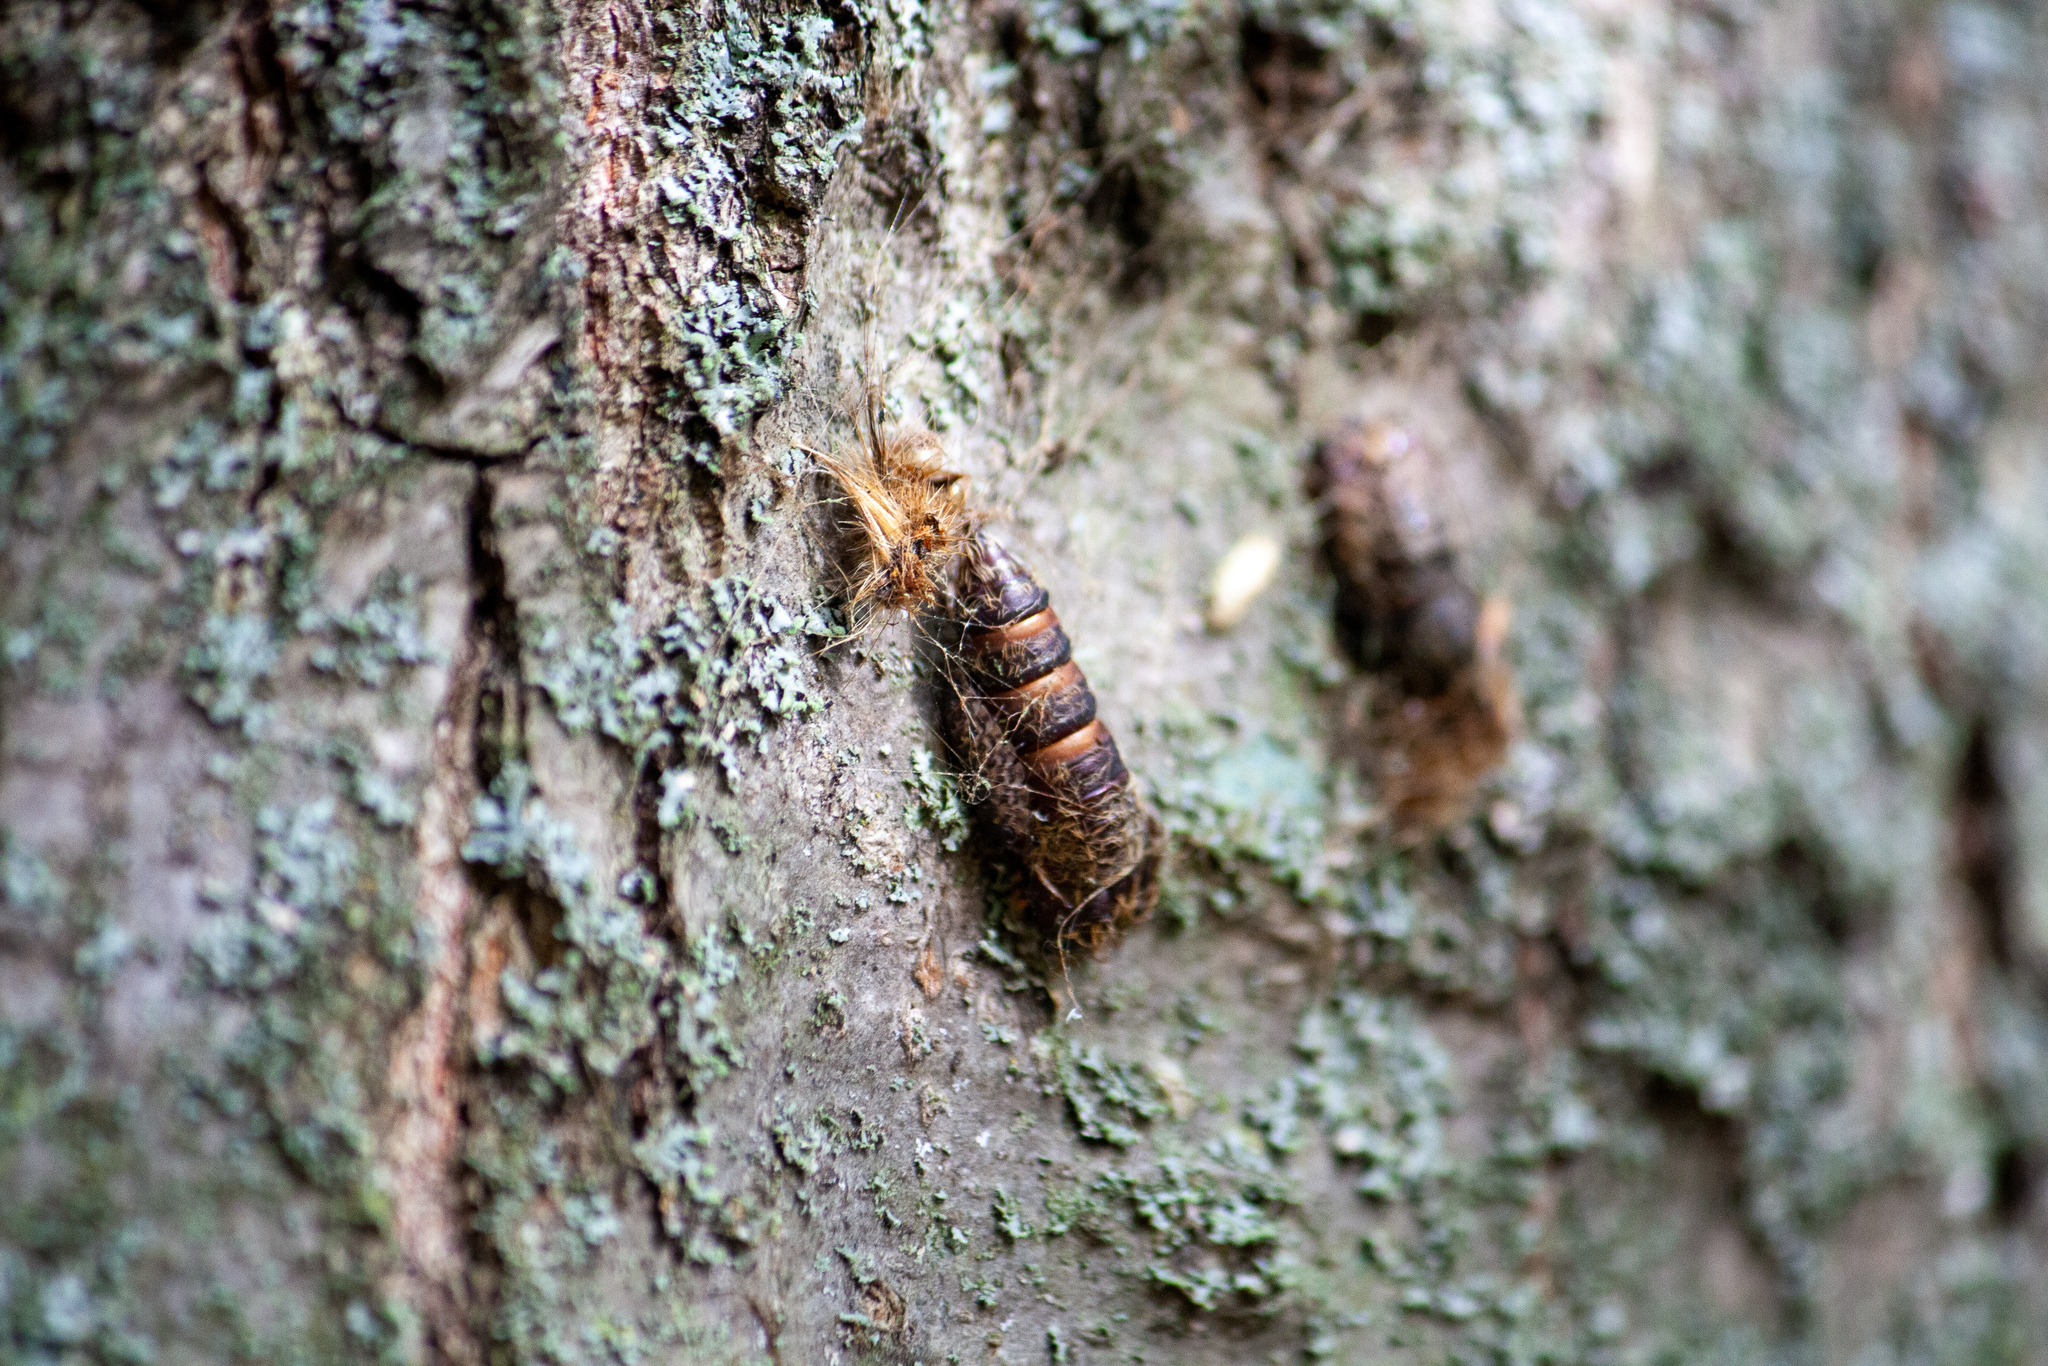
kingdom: Animalia
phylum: Arthropoda
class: Insecta
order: Lepidoptera
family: Erebidae
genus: Lymantria
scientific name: Lymantria dispar
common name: Gypsy moth
